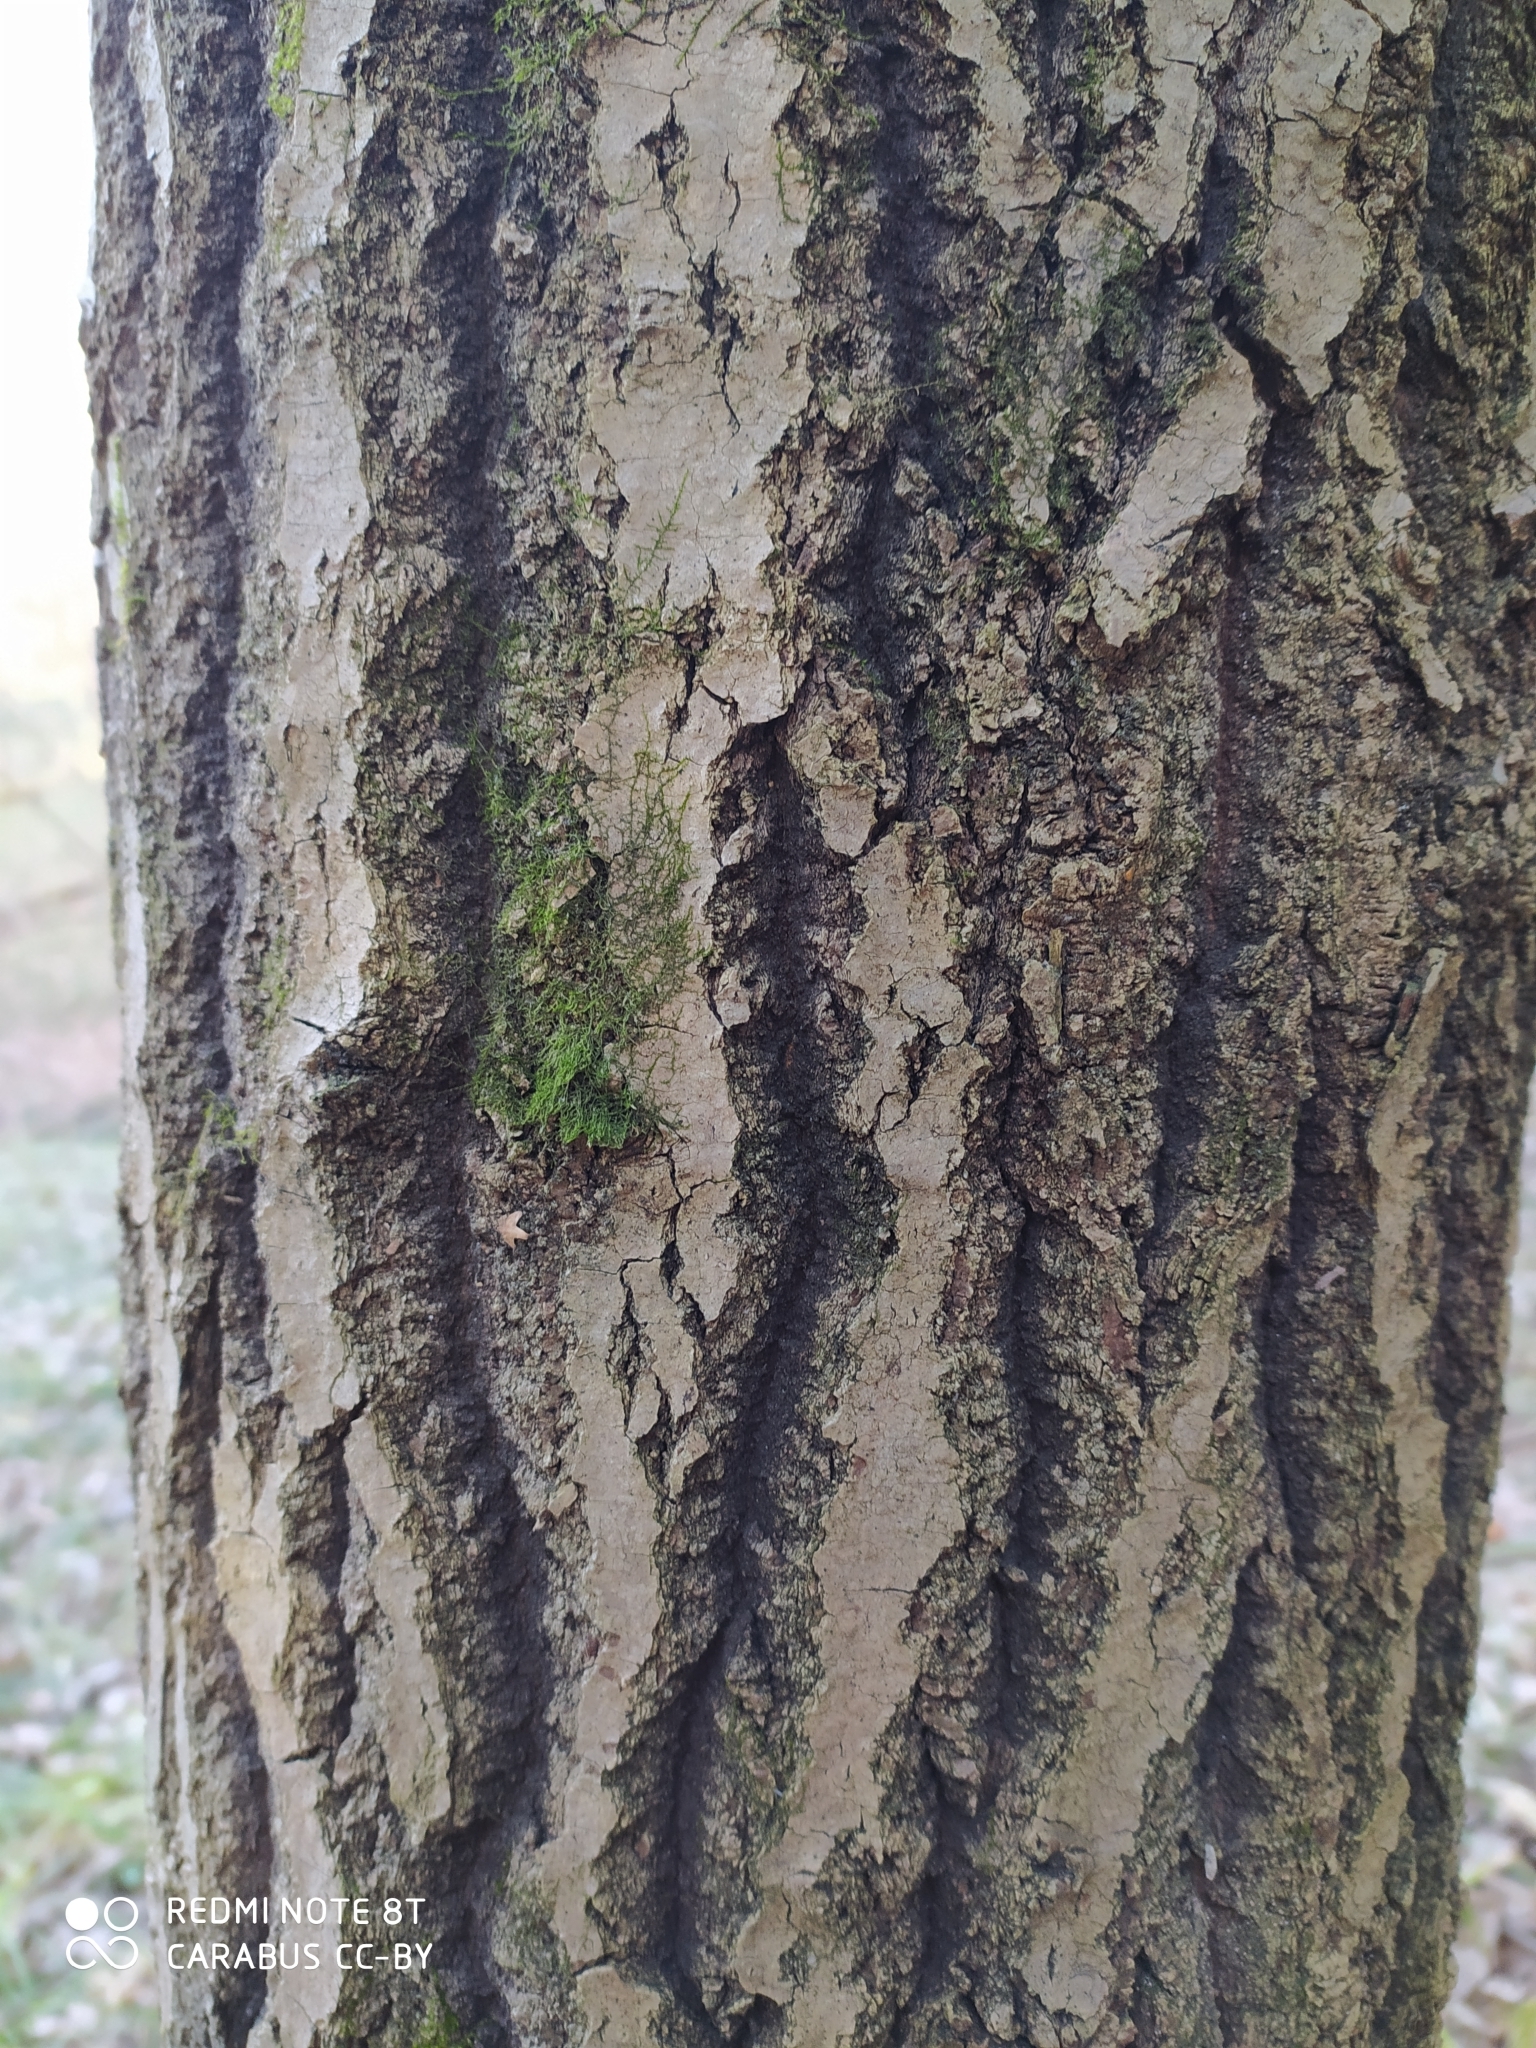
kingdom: Plantae
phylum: Tracheophyta
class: Magnoliopsida
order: Malpighiales
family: Salicaceae
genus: Populus
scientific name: Populus tremula
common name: European aspen
